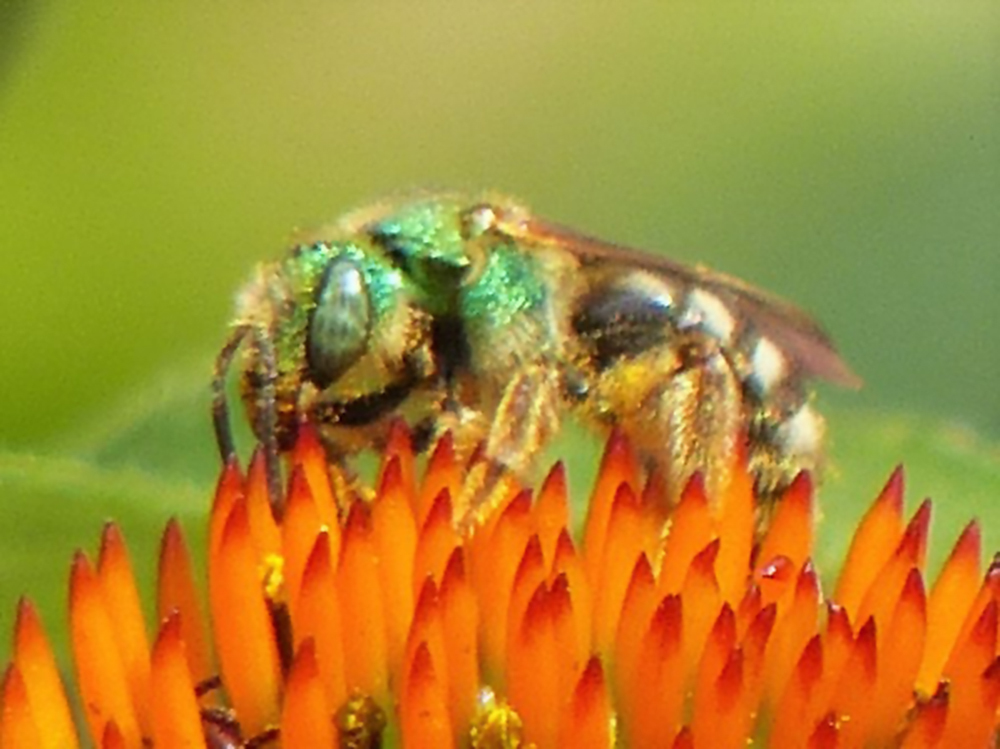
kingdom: Animalia
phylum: Arthropoda
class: Insecta
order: Hymenoptera
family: Halictidae
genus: Agapostemon
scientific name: Agapostemon virescens
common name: Bicolored striped sweat bee
